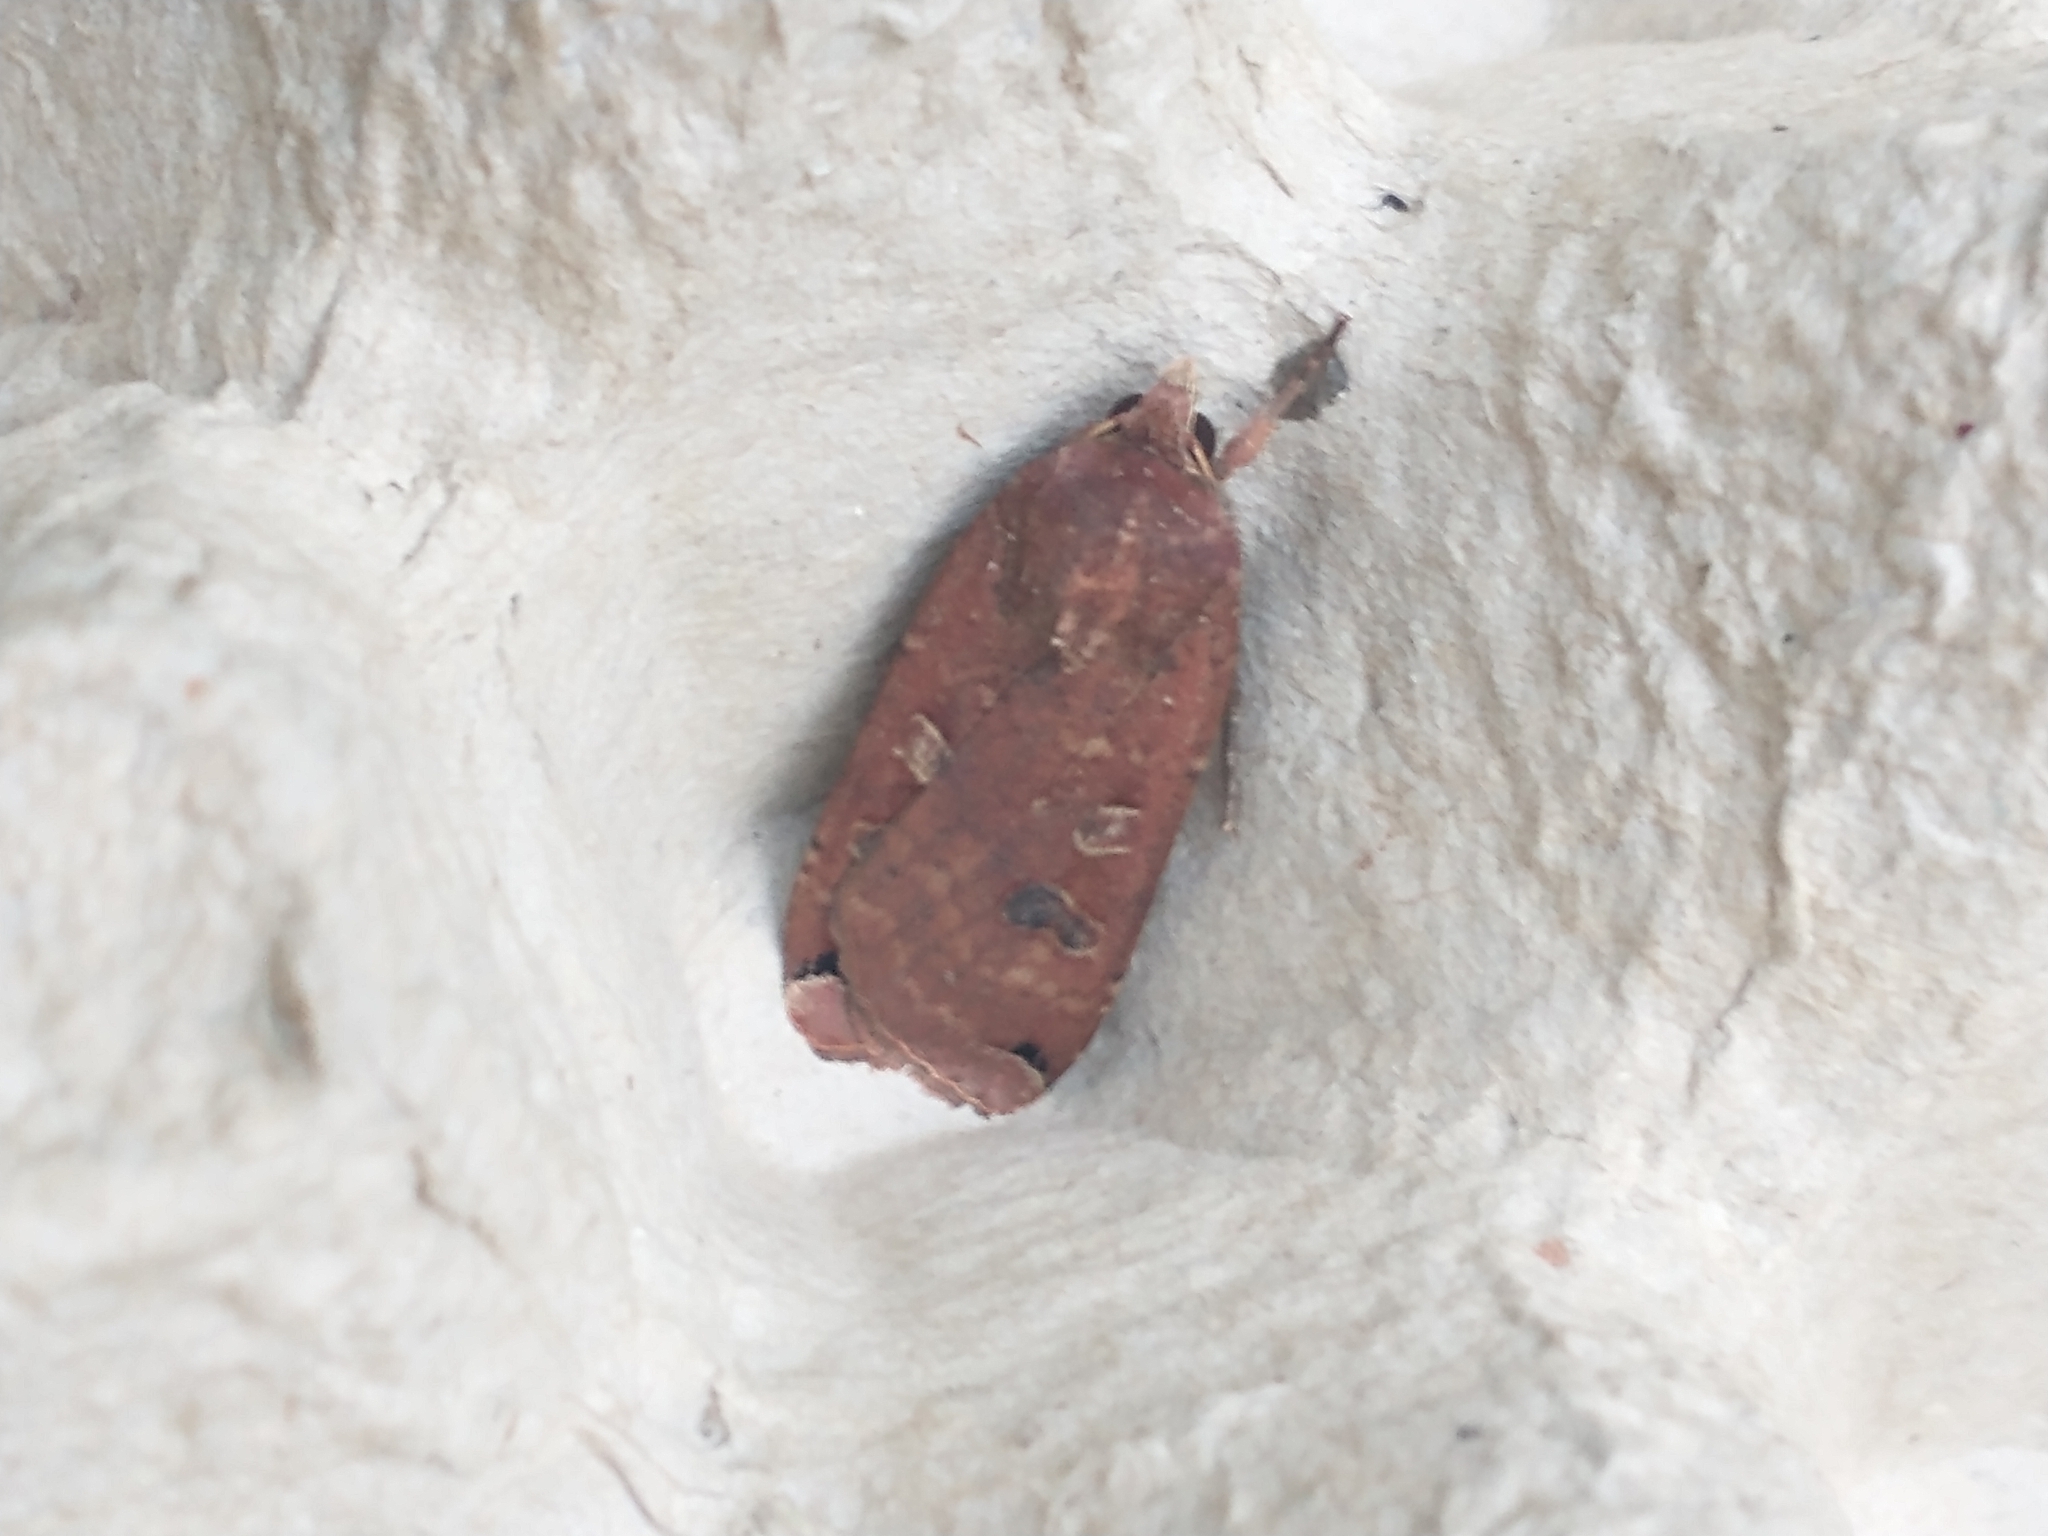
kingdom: Animalia
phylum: Arthropoda
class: Insecta
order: Lepidoptera
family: Noctuidae
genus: Noctua
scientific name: Noctua pronuba
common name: Large yellow underwing
